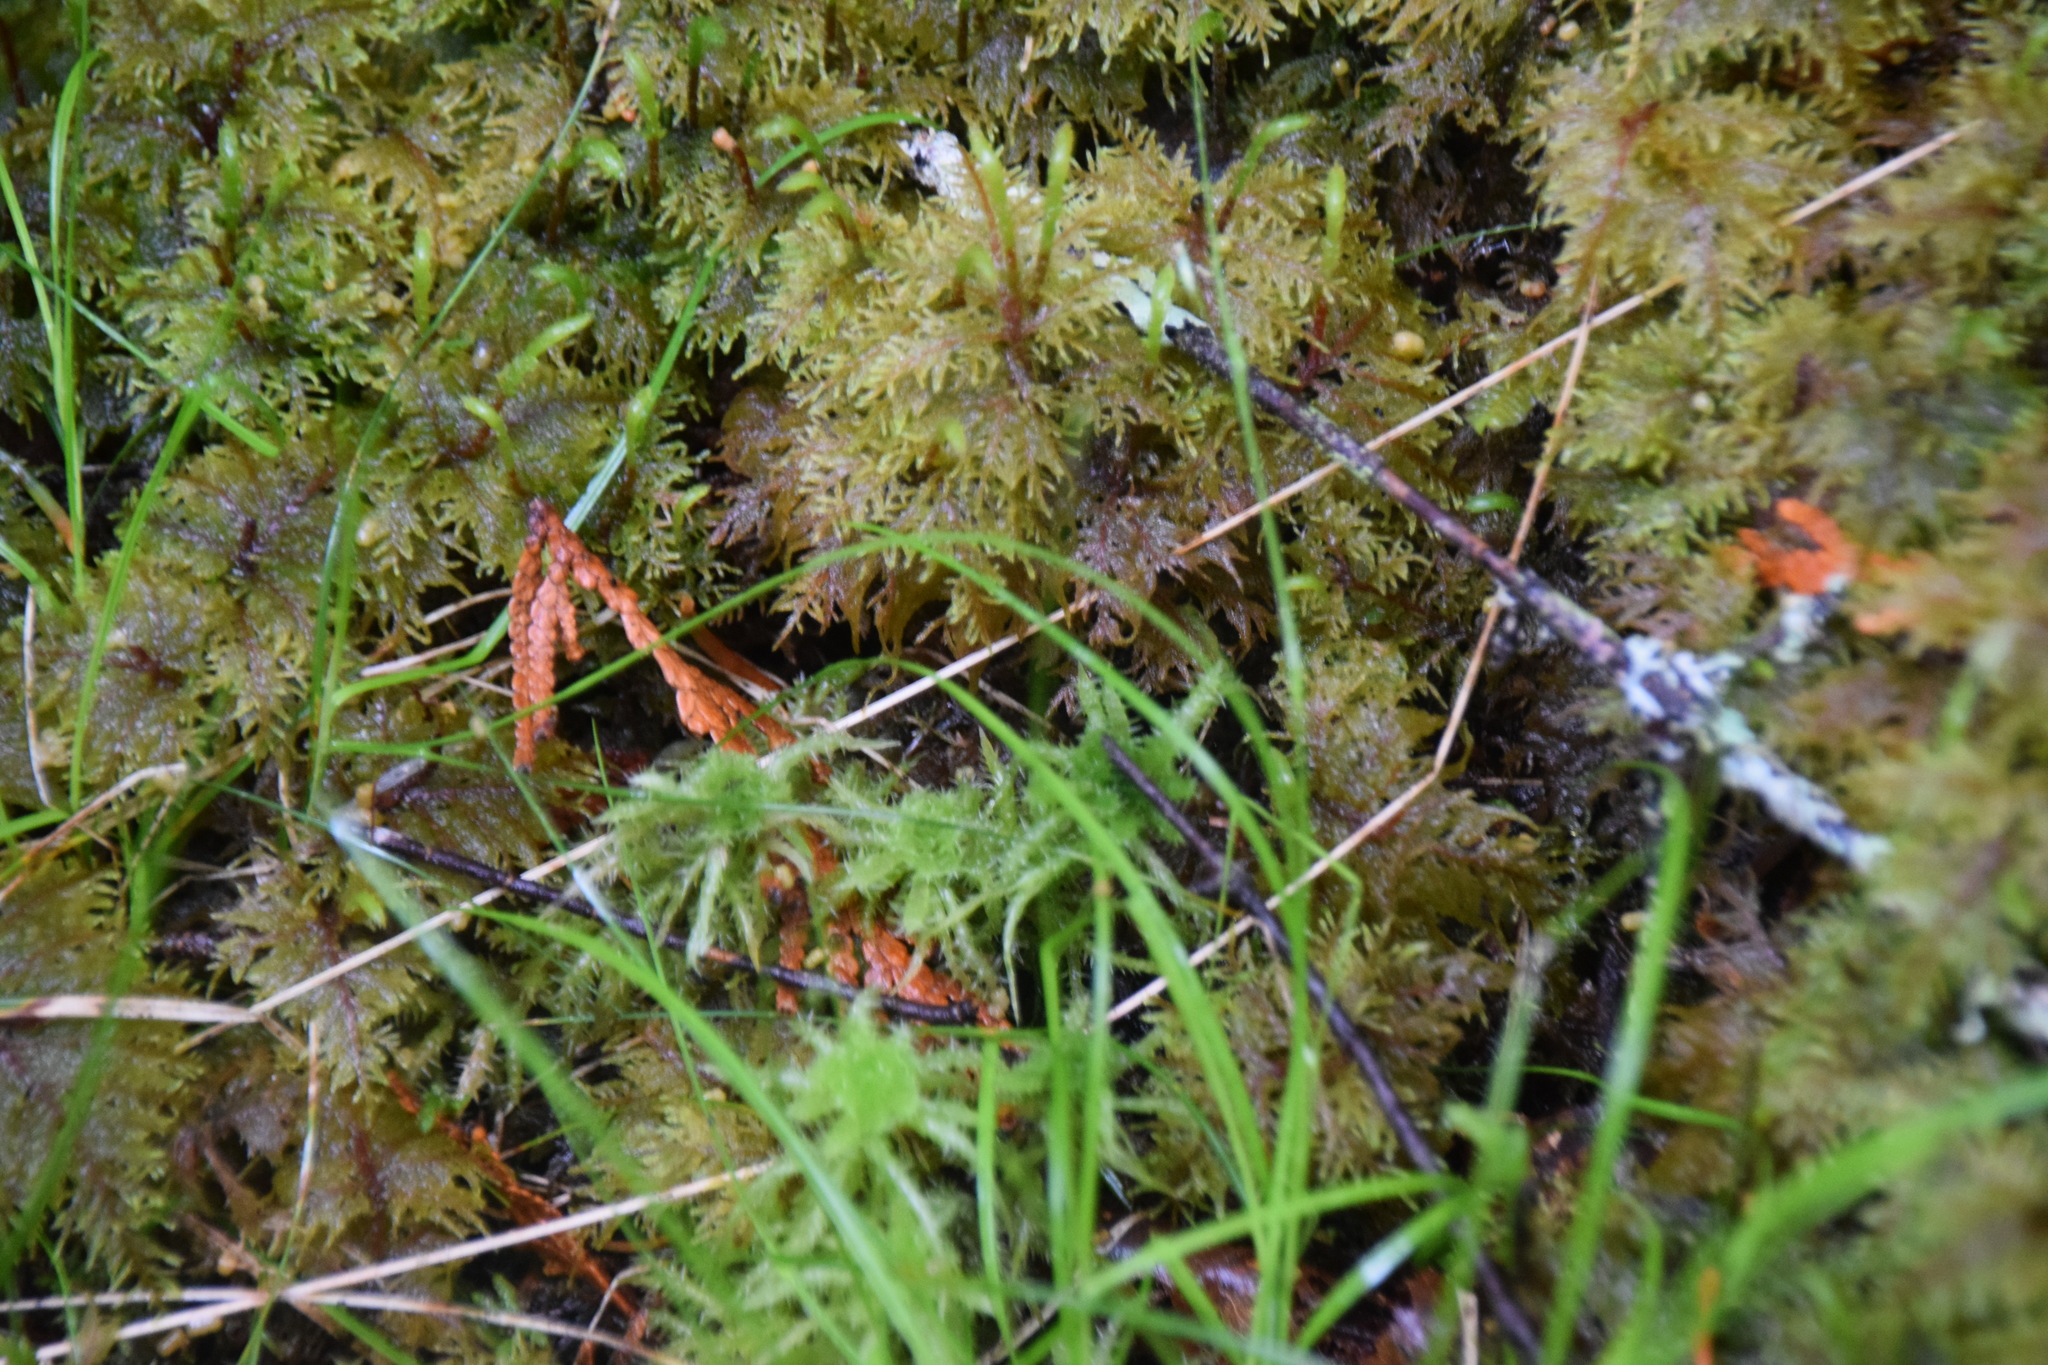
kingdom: Plantae
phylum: Bryophyta
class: Bryopsida
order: Hypnales
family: Hylocomiaceae
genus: Hylocomium
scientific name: Hylocomium splendens
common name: Stairstep moss
